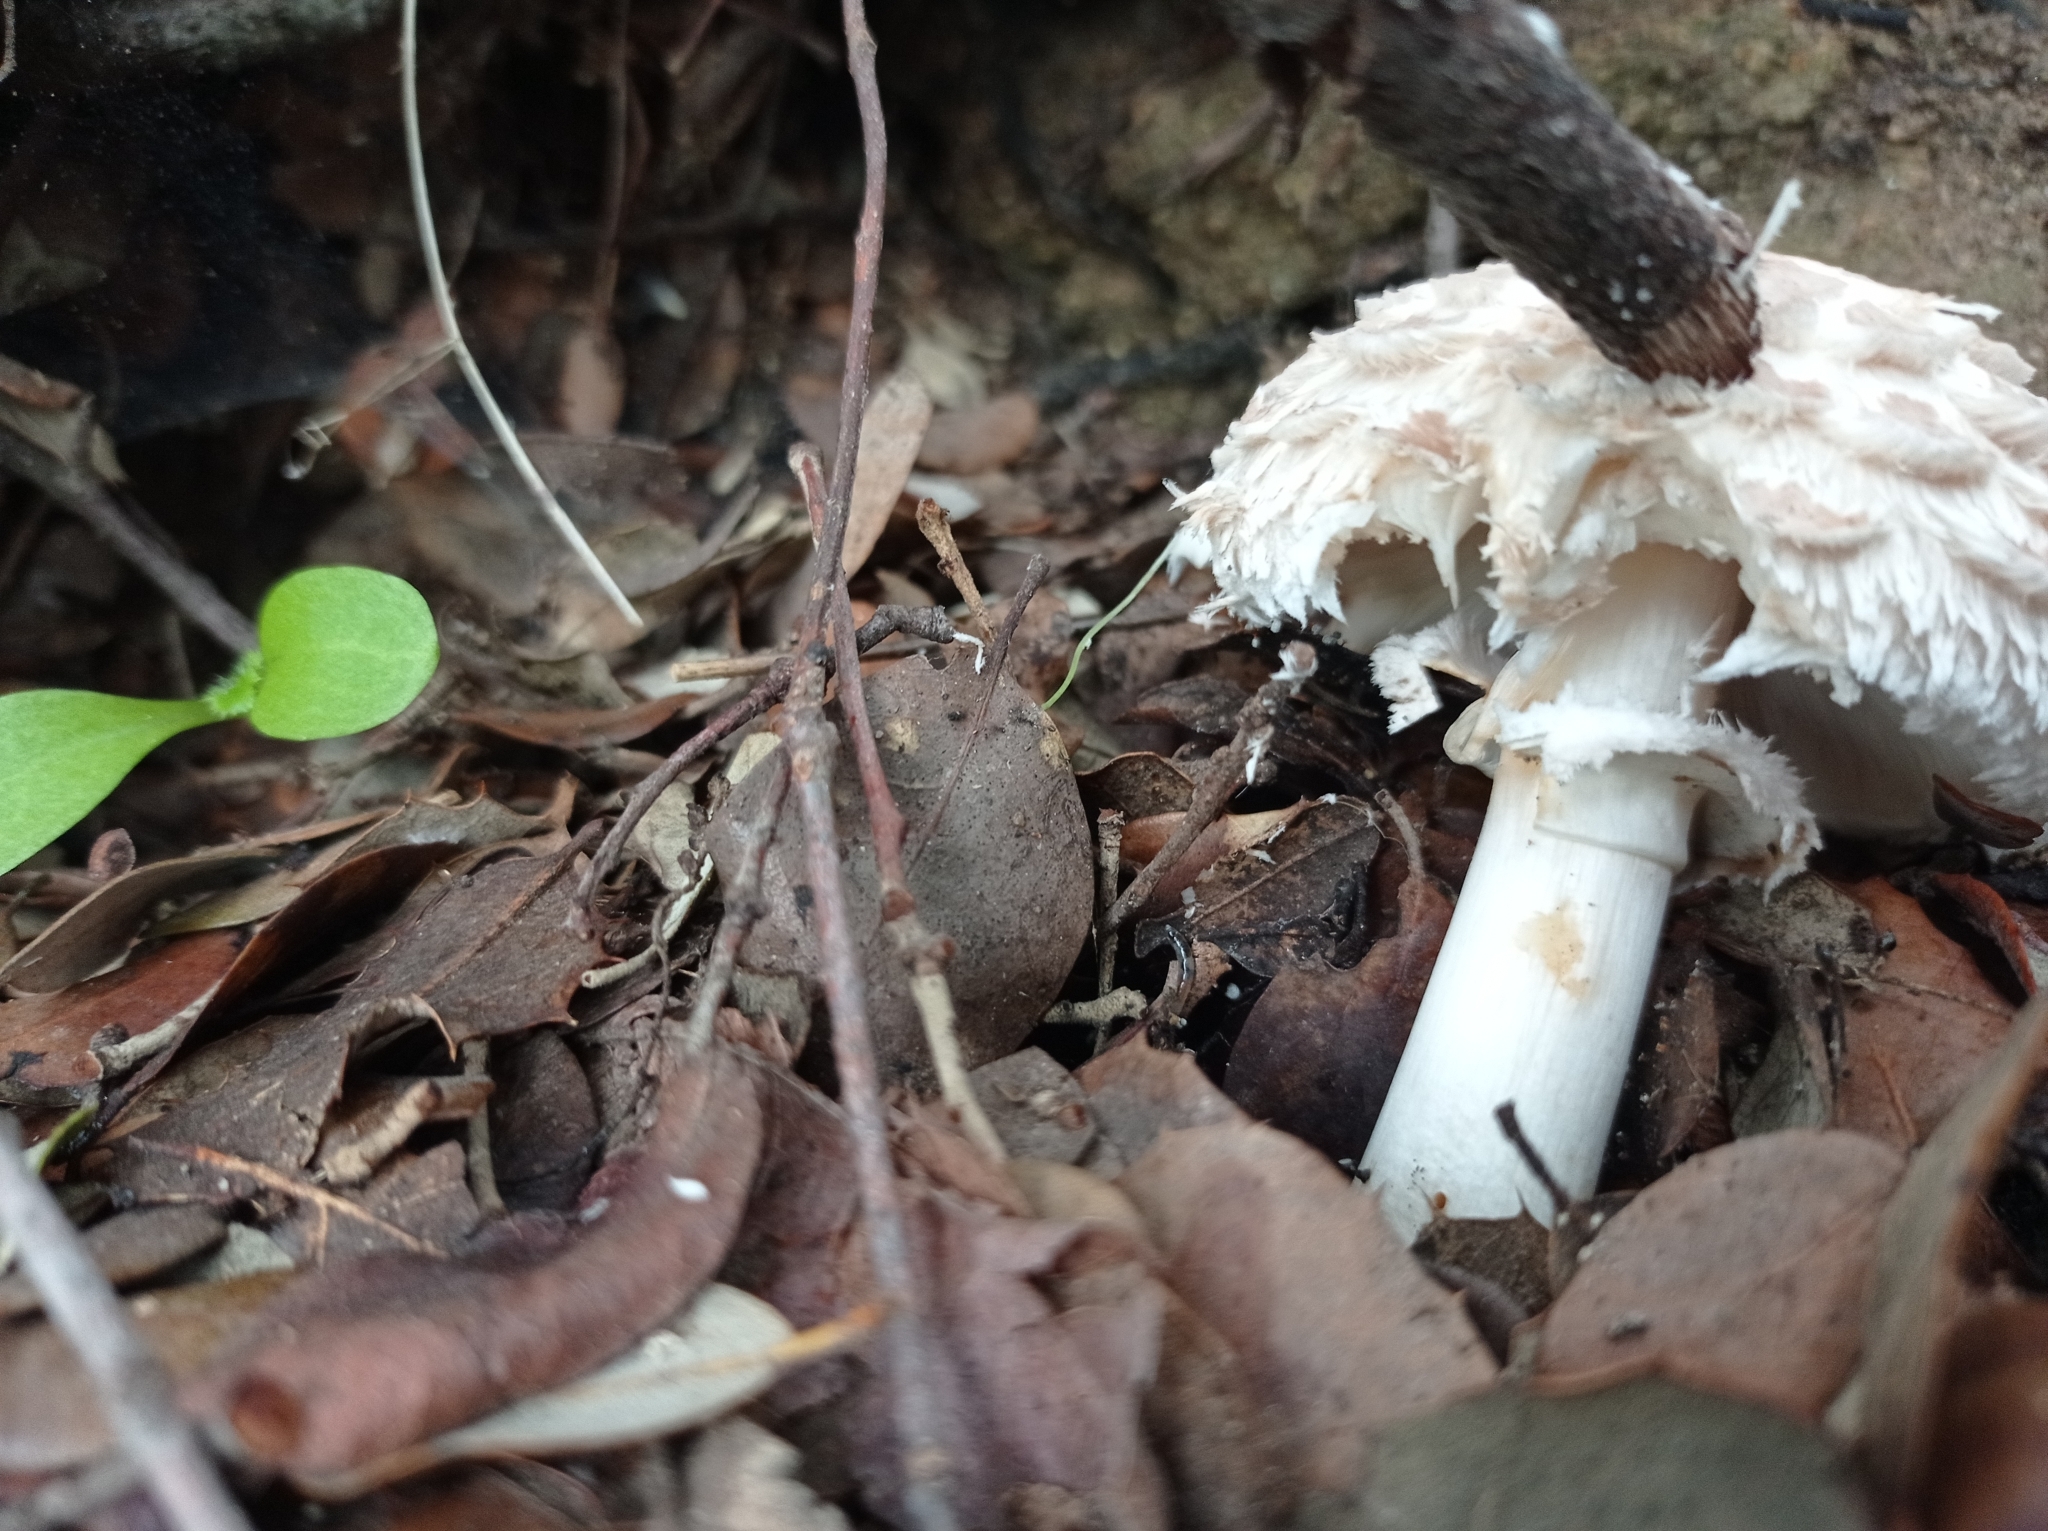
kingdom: Fungi
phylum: Basidiomycota
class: Agaricomycetes
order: Agaricales
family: Agaricaceae
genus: Chlorophyllum
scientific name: Chlorophyllum rhacodes
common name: Shaggy parasol
